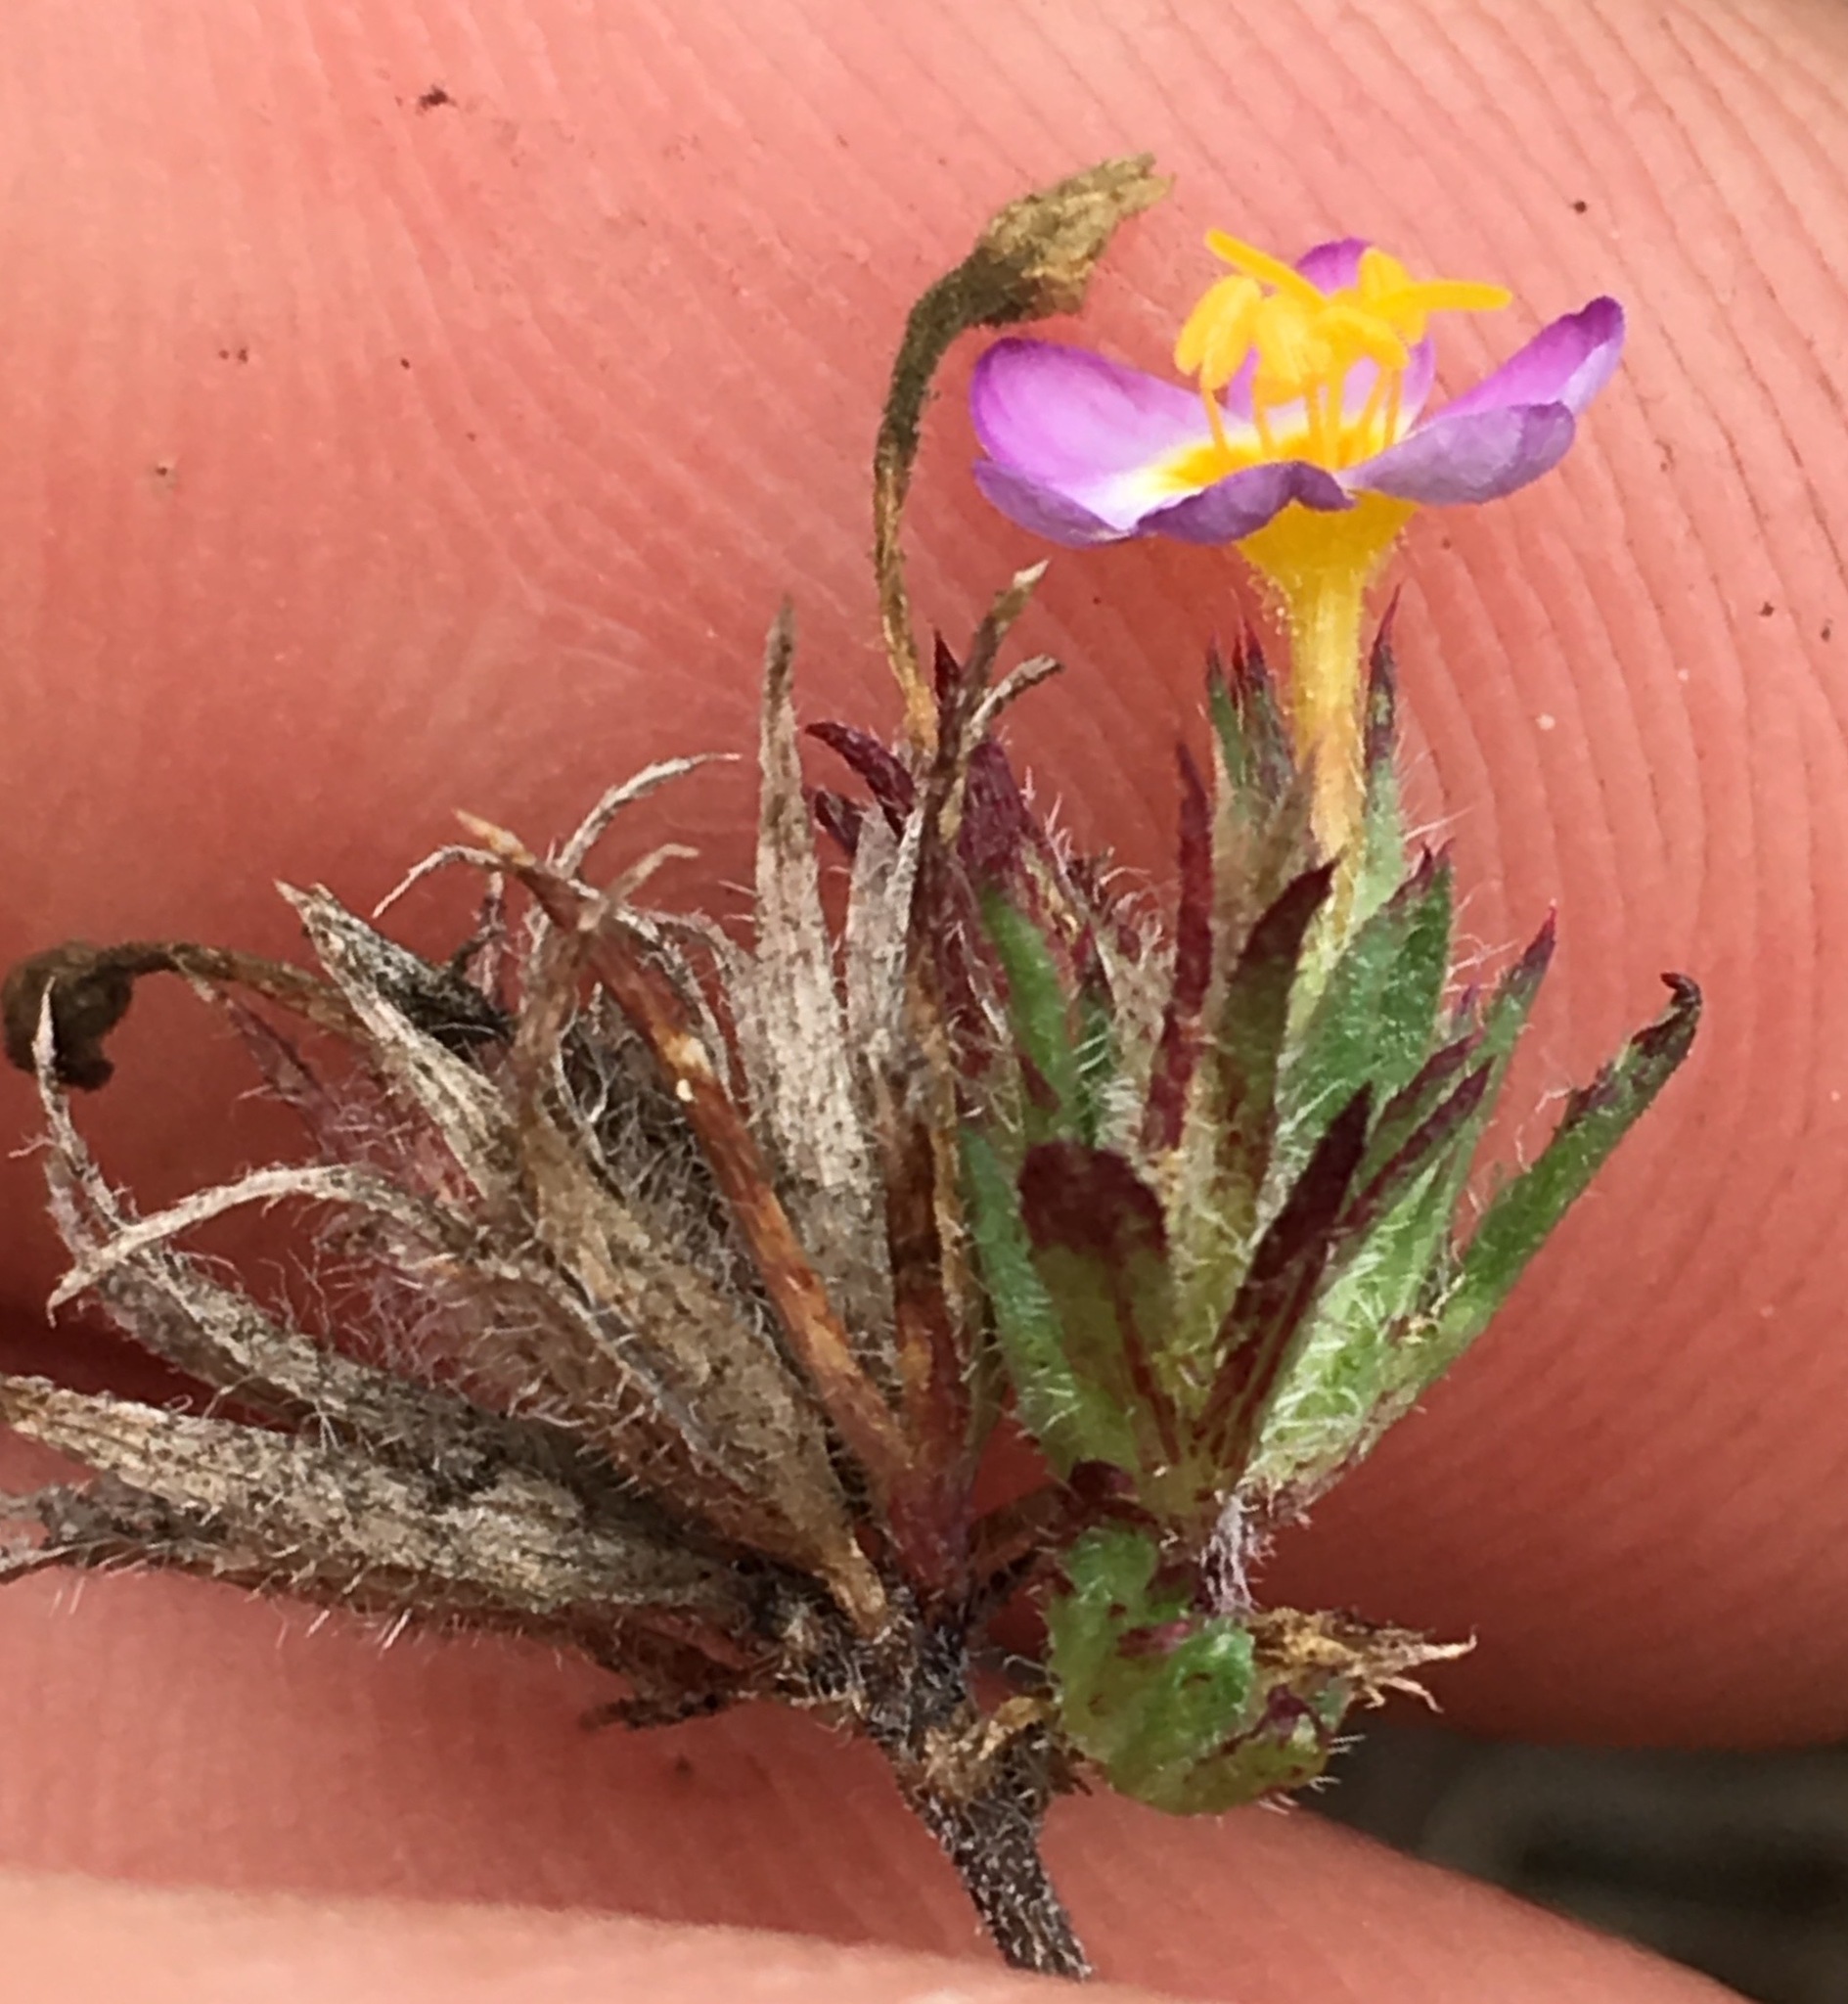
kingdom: Plantae
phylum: Tracheophyta
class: Magnoliopsida
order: Ericales
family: Polemoniaceae
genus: Leptosiphon
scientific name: Leptosiphon bicolor
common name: True babystars
